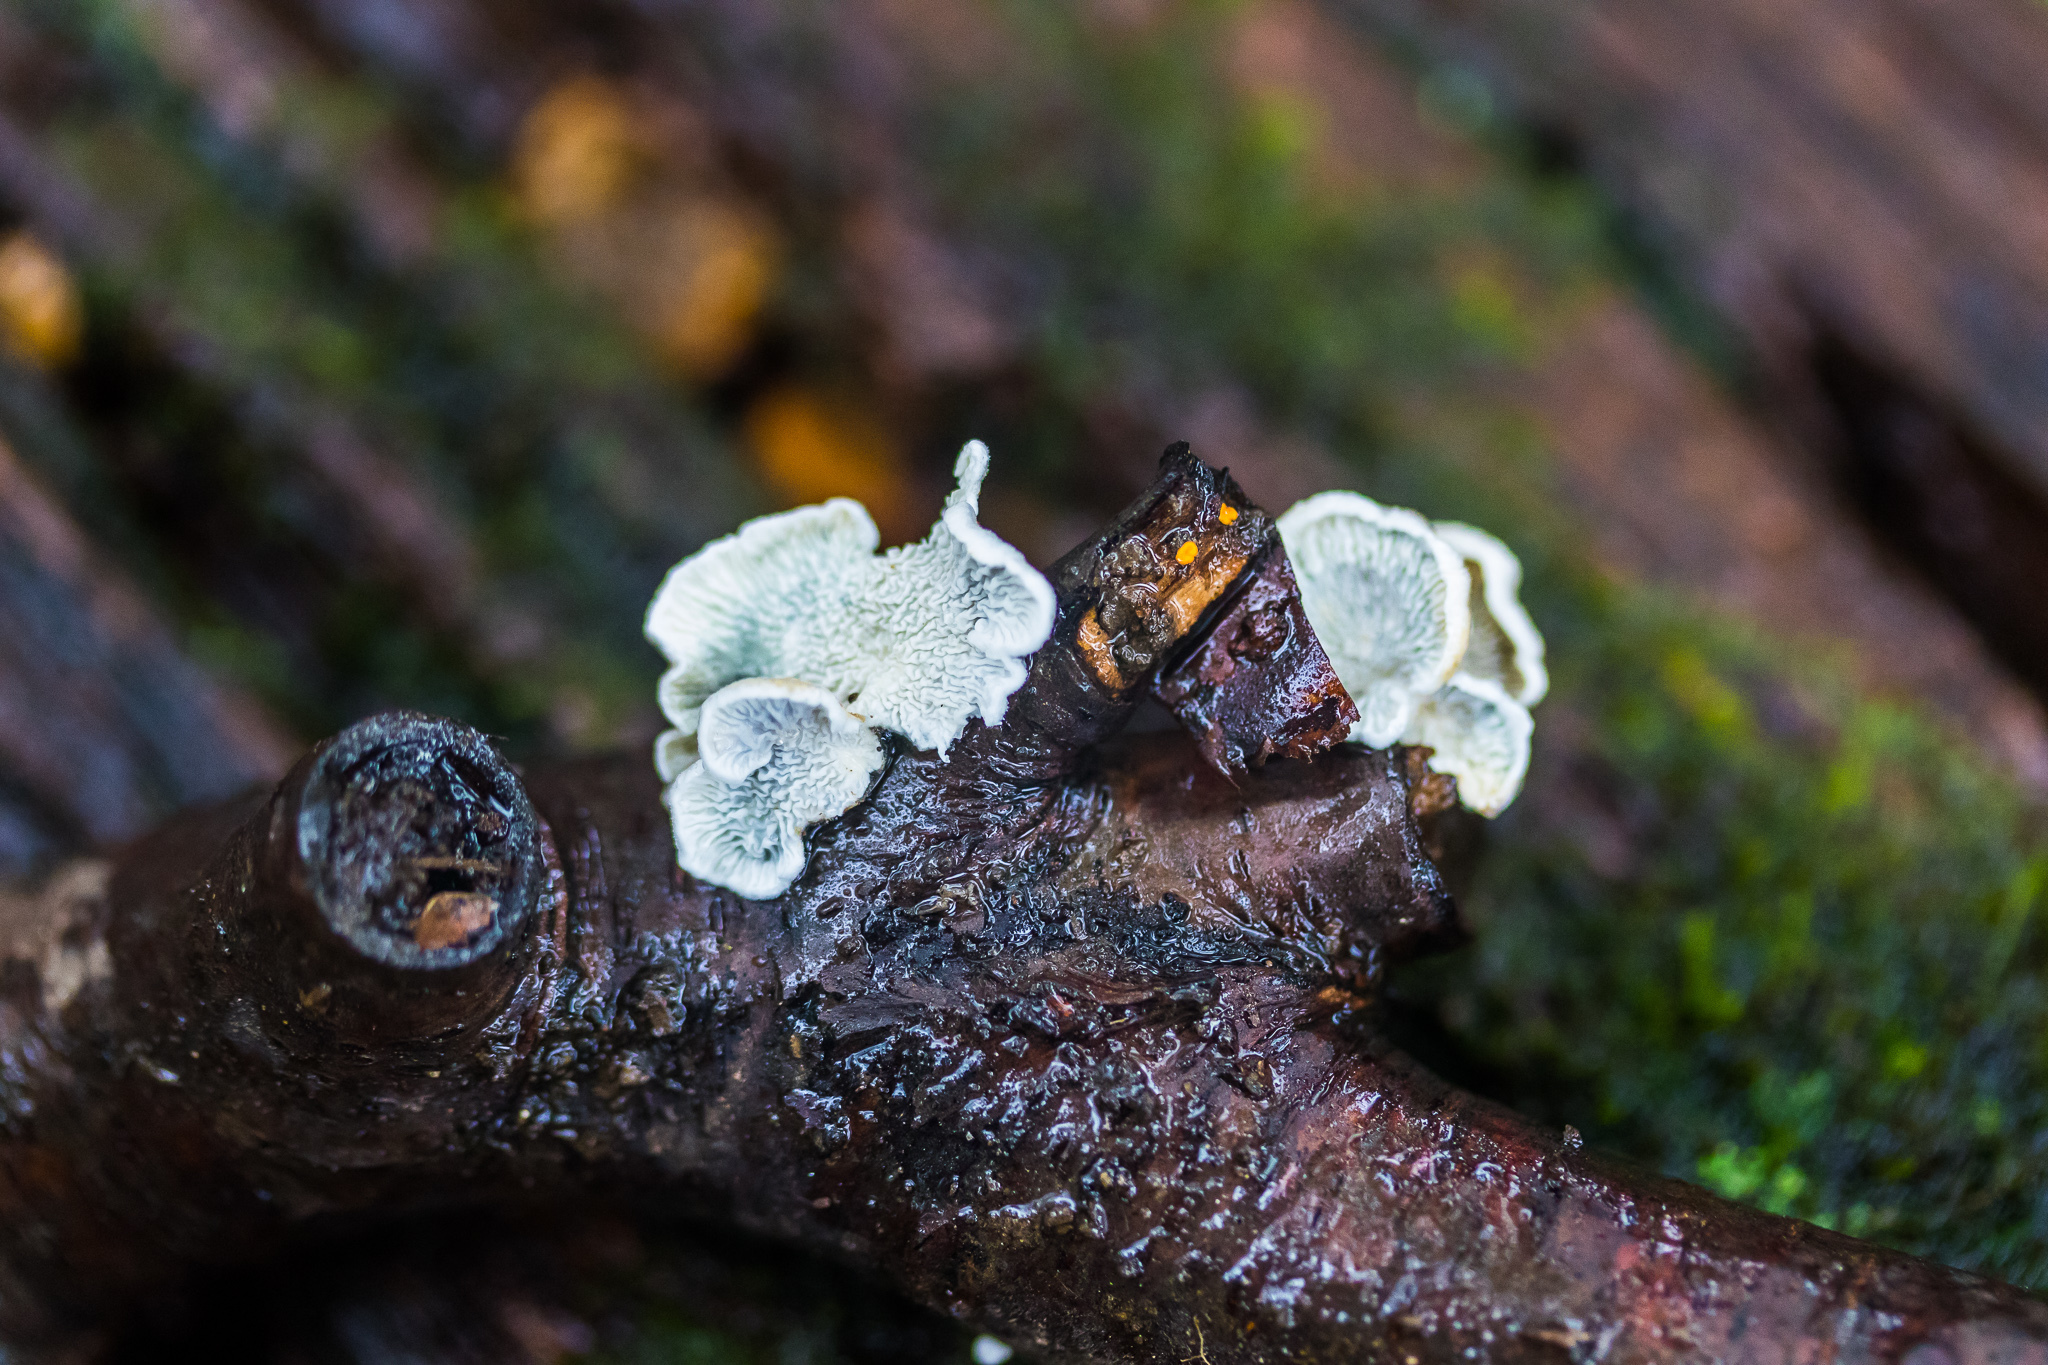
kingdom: Fungi
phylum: Basidiomycota
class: Agaricomycetes
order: Amylocorticiales
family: Amylocorticiaceae
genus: Plicaturopsis
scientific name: Plicaturopsis crispa
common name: Crimped gill
